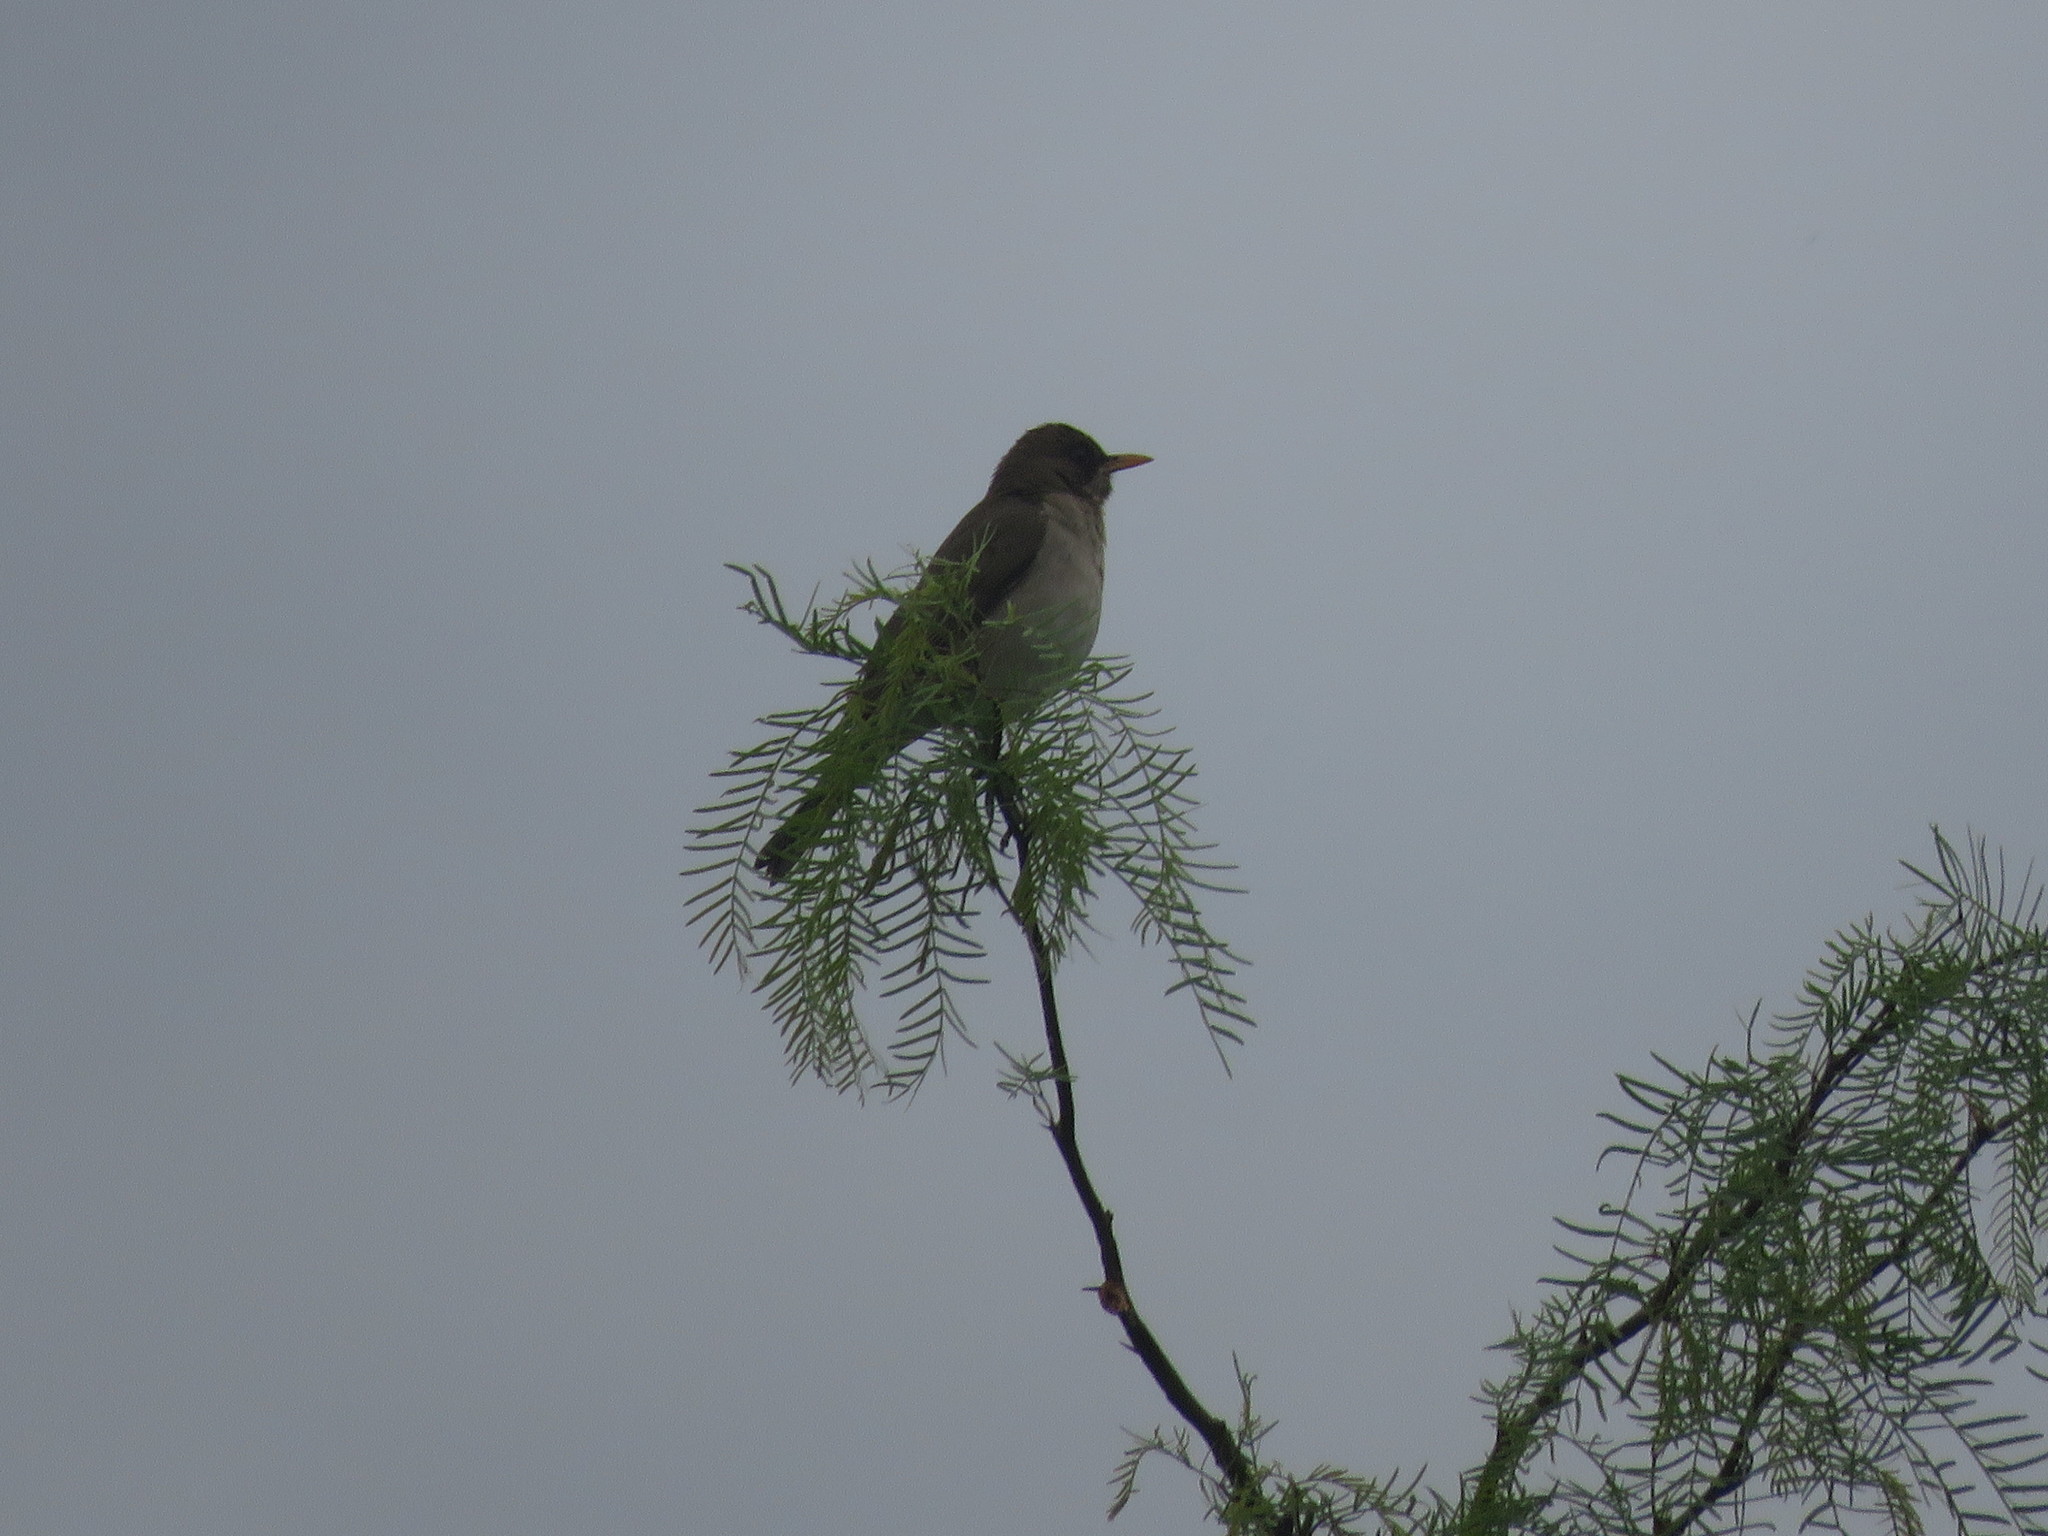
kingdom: Animalia
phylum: Chordata
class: Aves
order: Passeriformes
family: Turdidae
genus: Turdus
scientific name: Turdus amaurochalinus
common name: Creamy-bellied thrush
